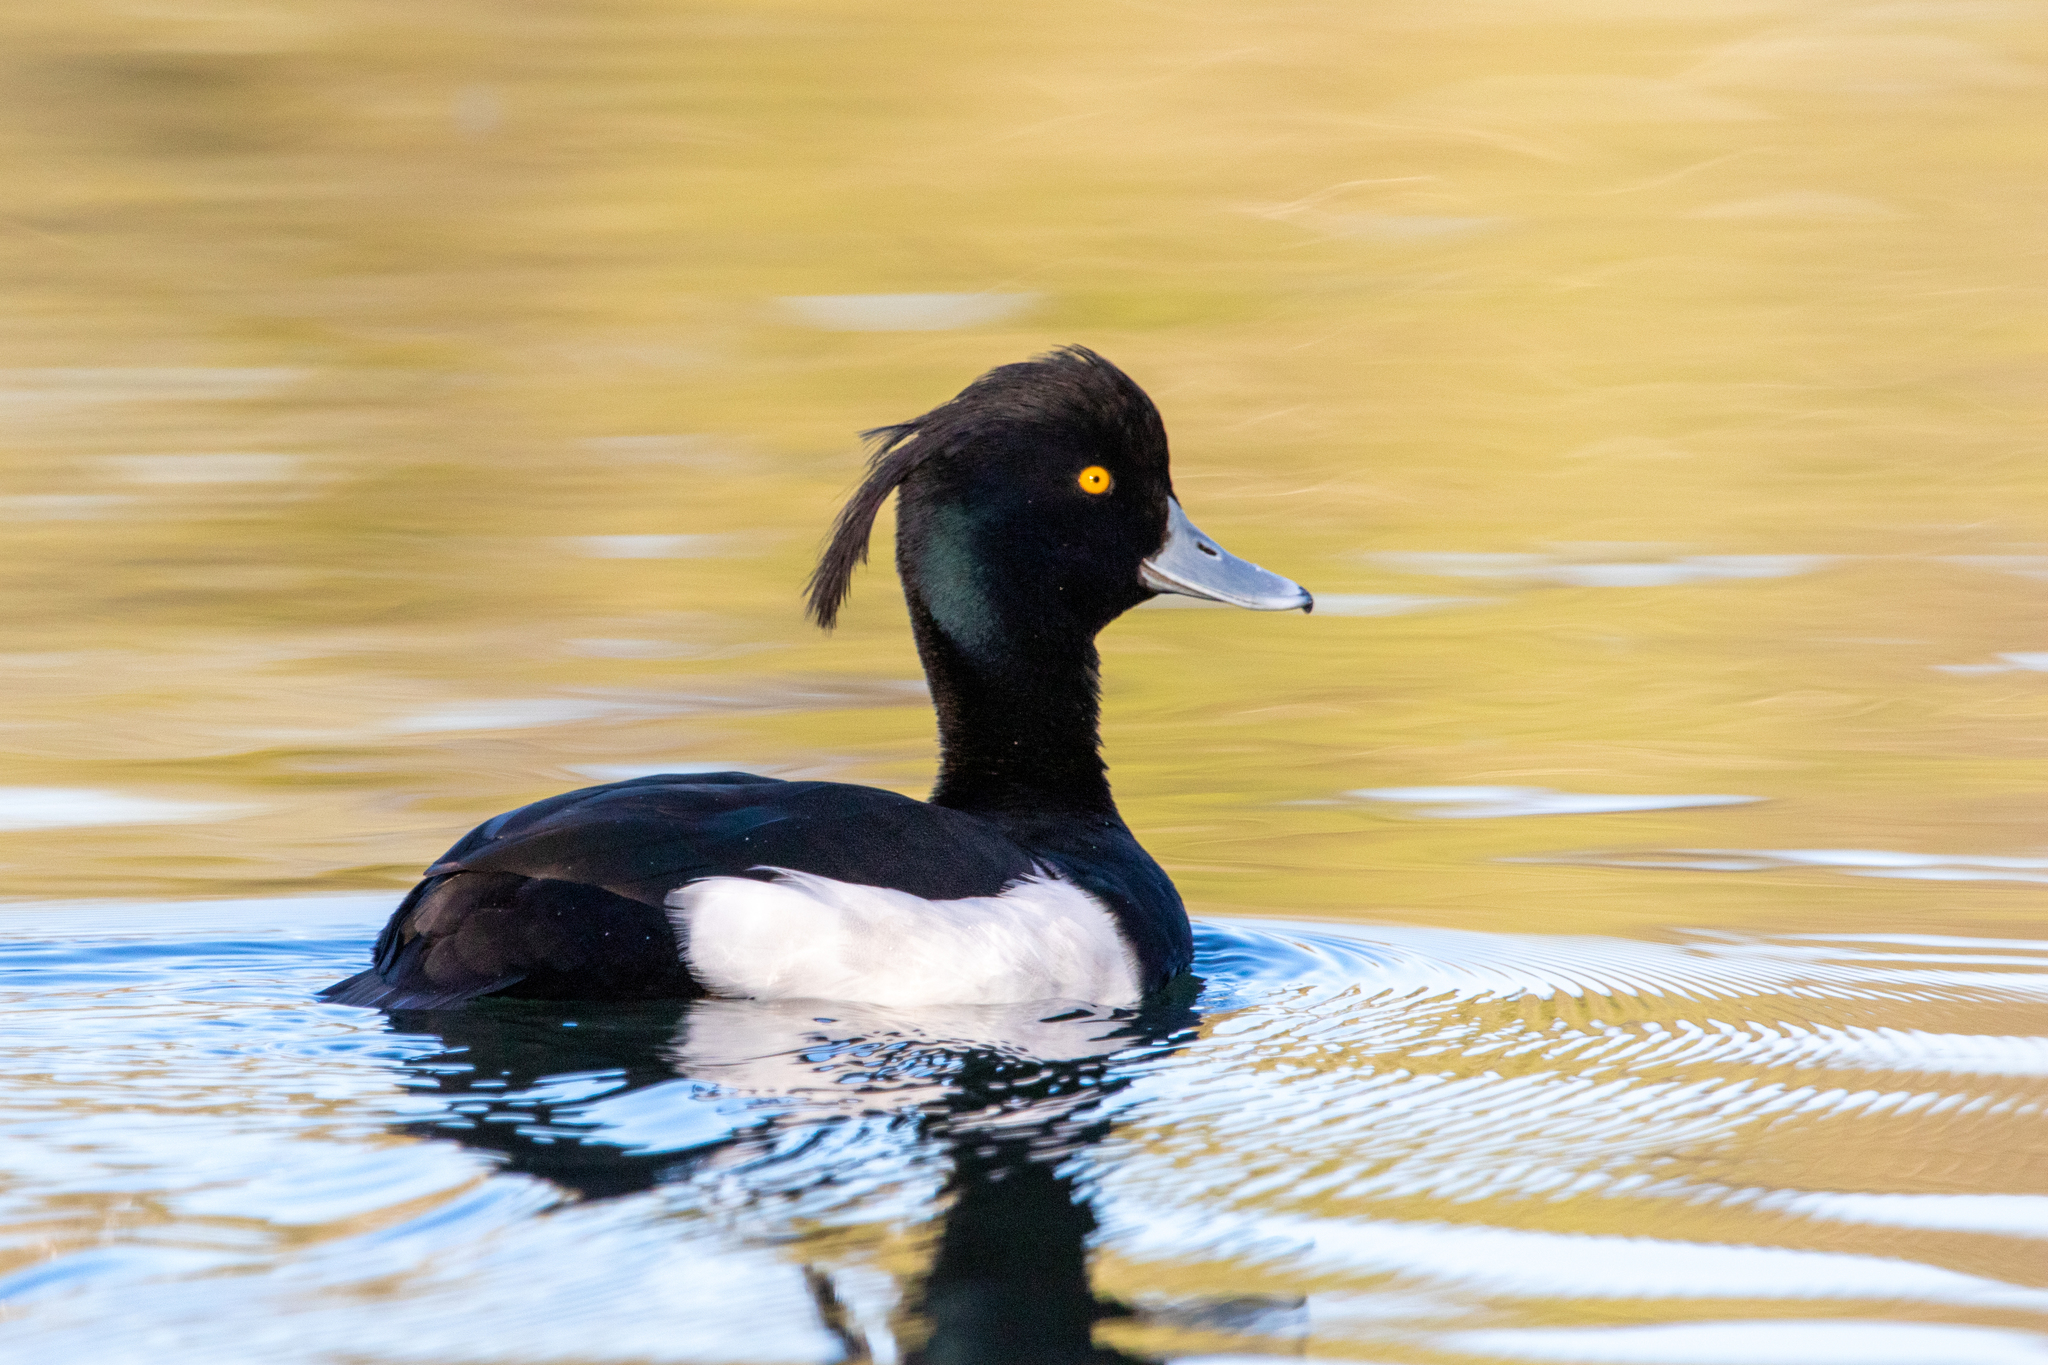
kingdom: Animalia
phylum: Chordata
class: Aves
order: Anseriformes
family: Anatidae
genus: Aythya
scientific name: Aythya fuligula
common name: Tufted duck
